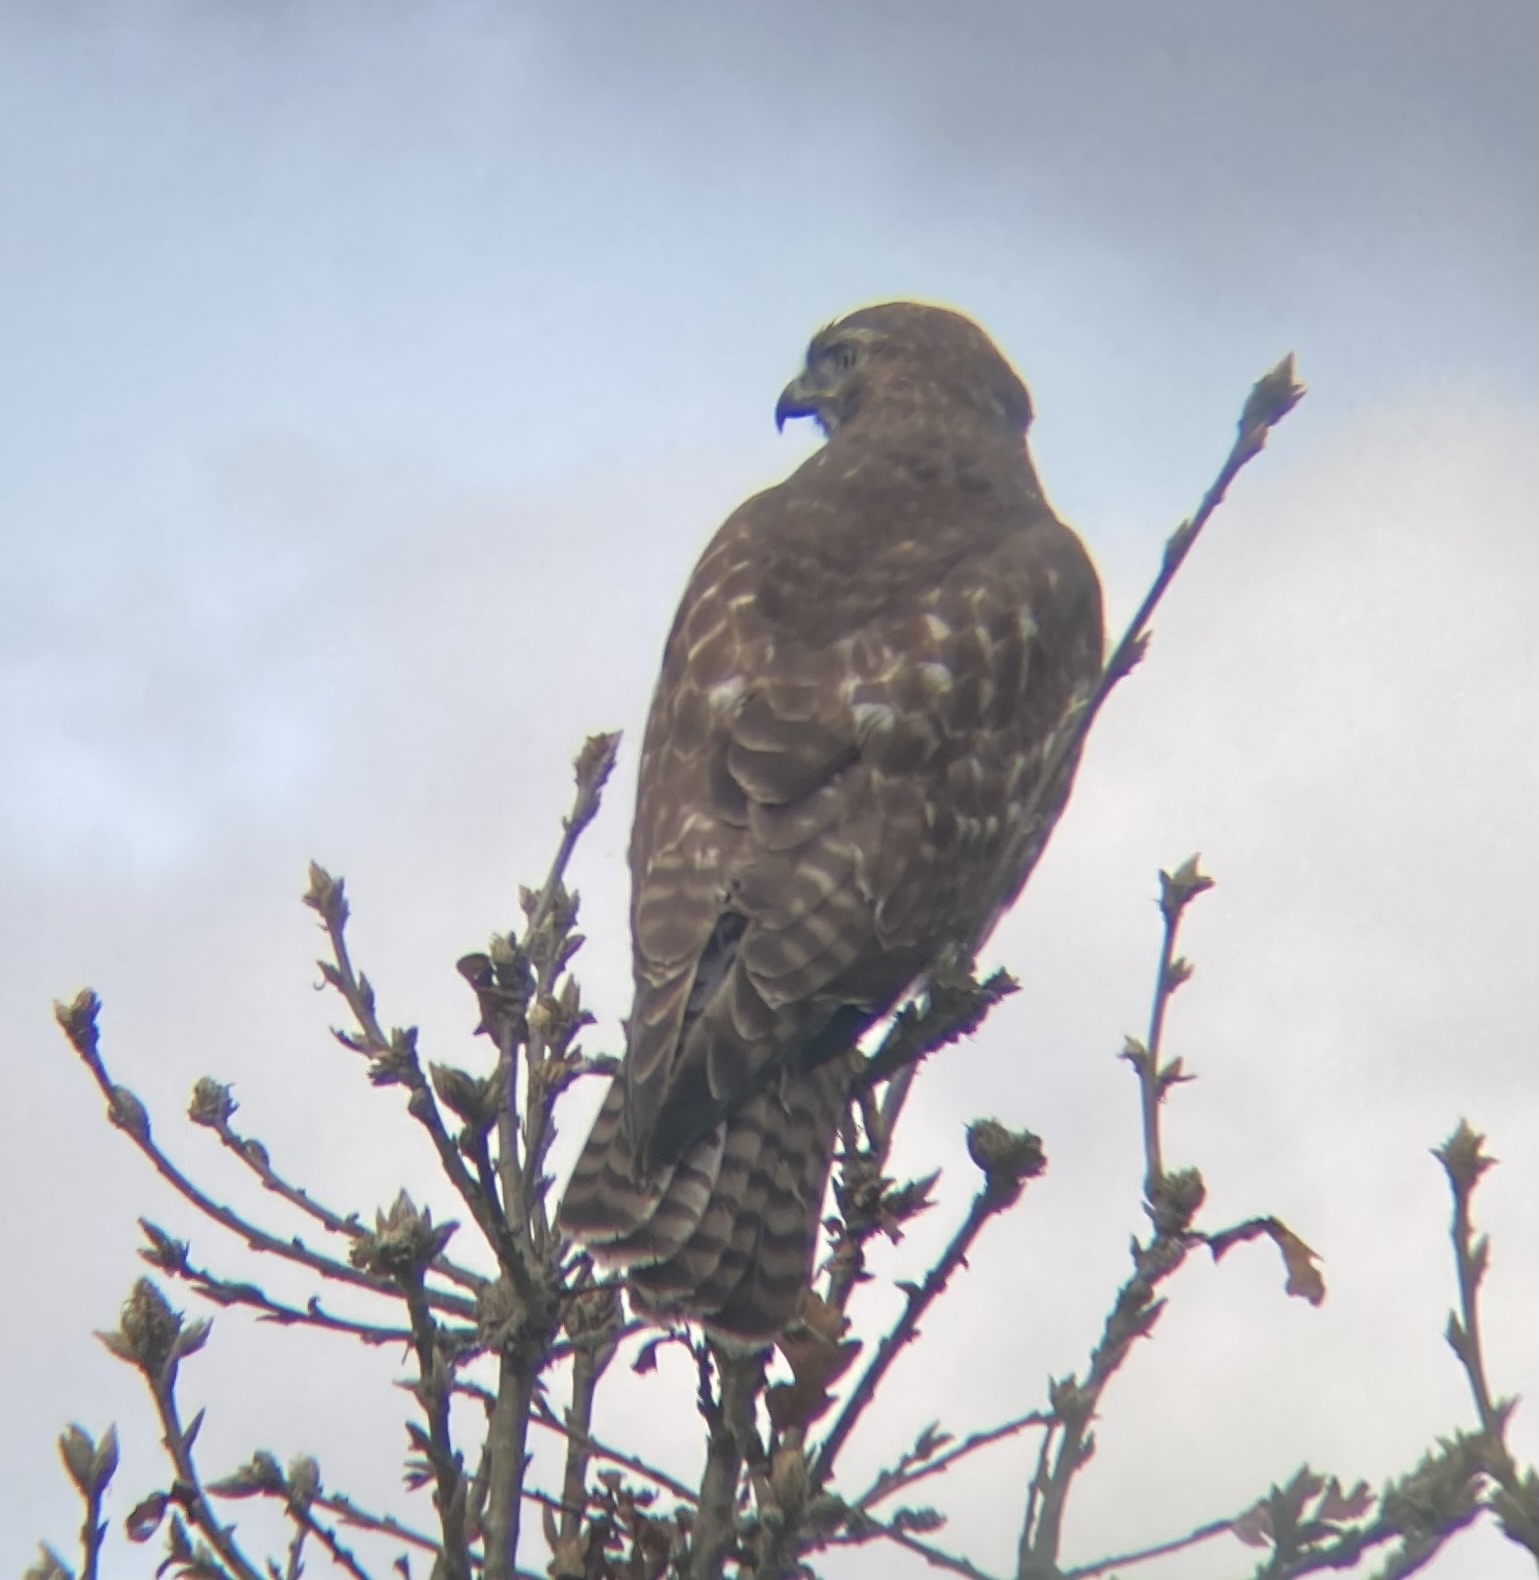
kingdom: Animalia
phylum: Chordata
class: Aves
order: Accipitriformes
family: Accipitridae
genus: Buteo
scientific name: Buteo jamaicensis
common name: Red-tailed hawk
